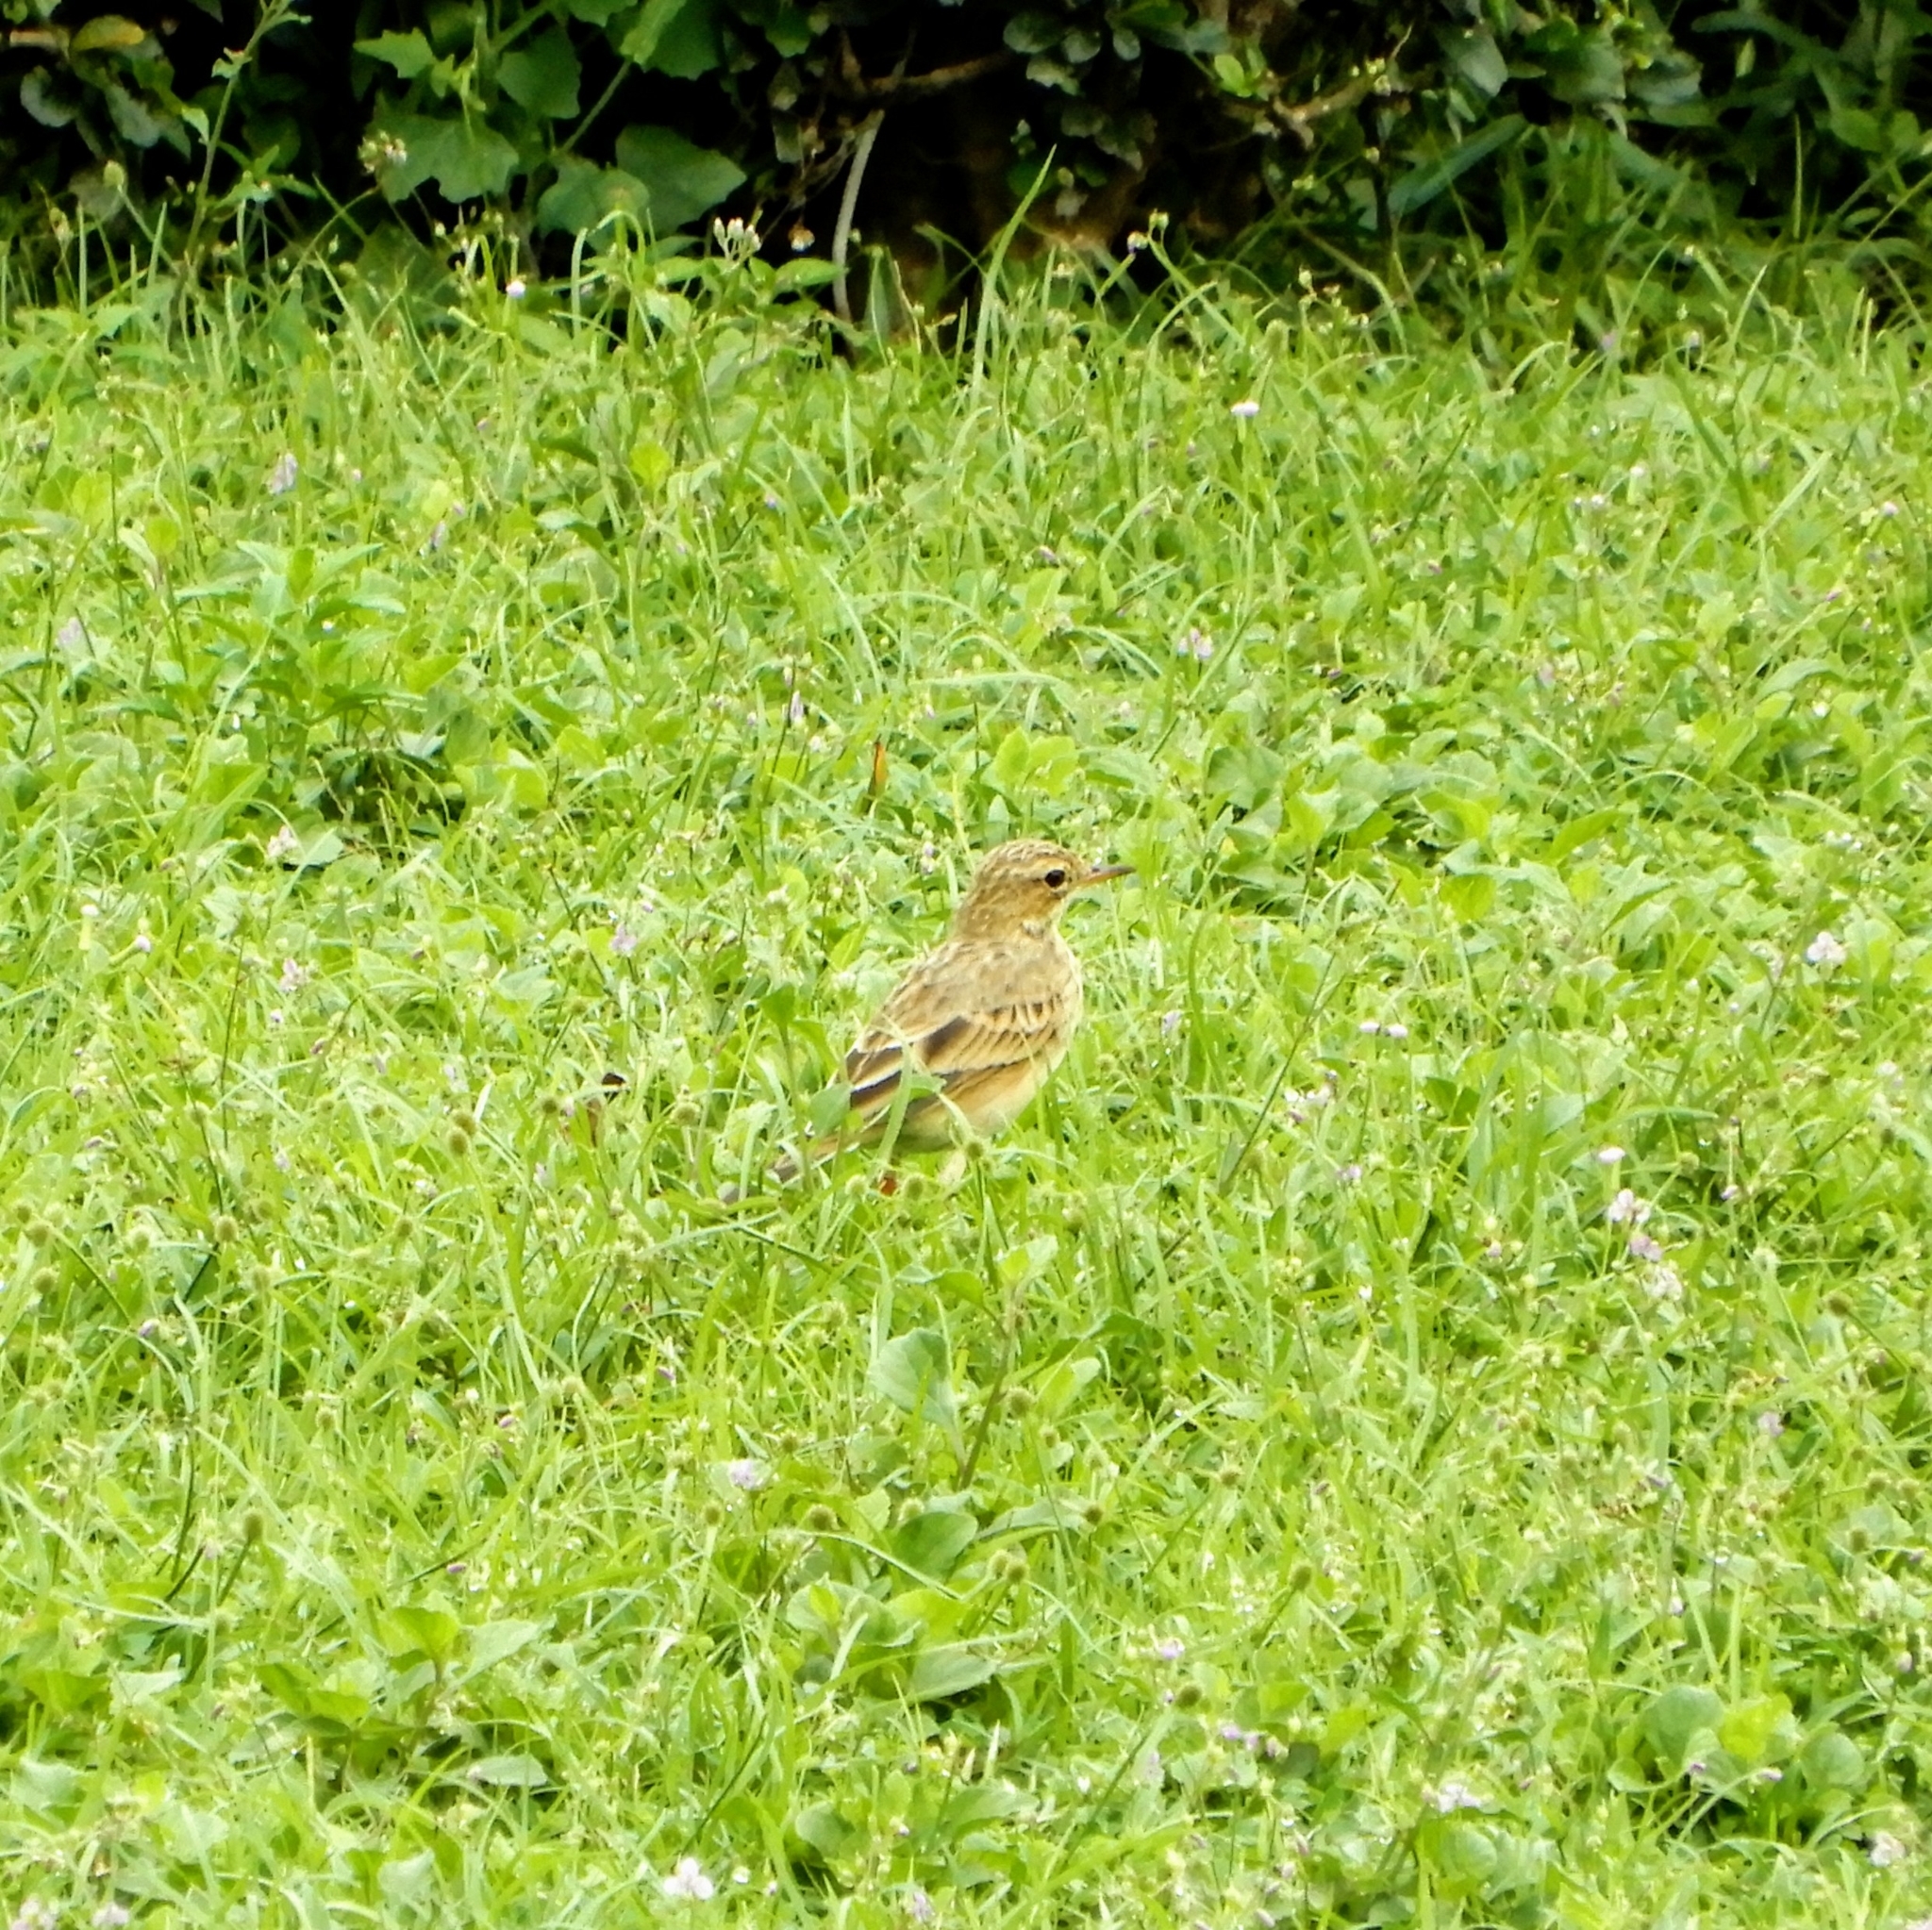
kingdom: Animalia
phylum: Chordata
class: Aves
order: Passeriformes
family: Motacillidae
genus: Anthus
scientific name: Anthus rufulus
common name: Paddyfield pipit
